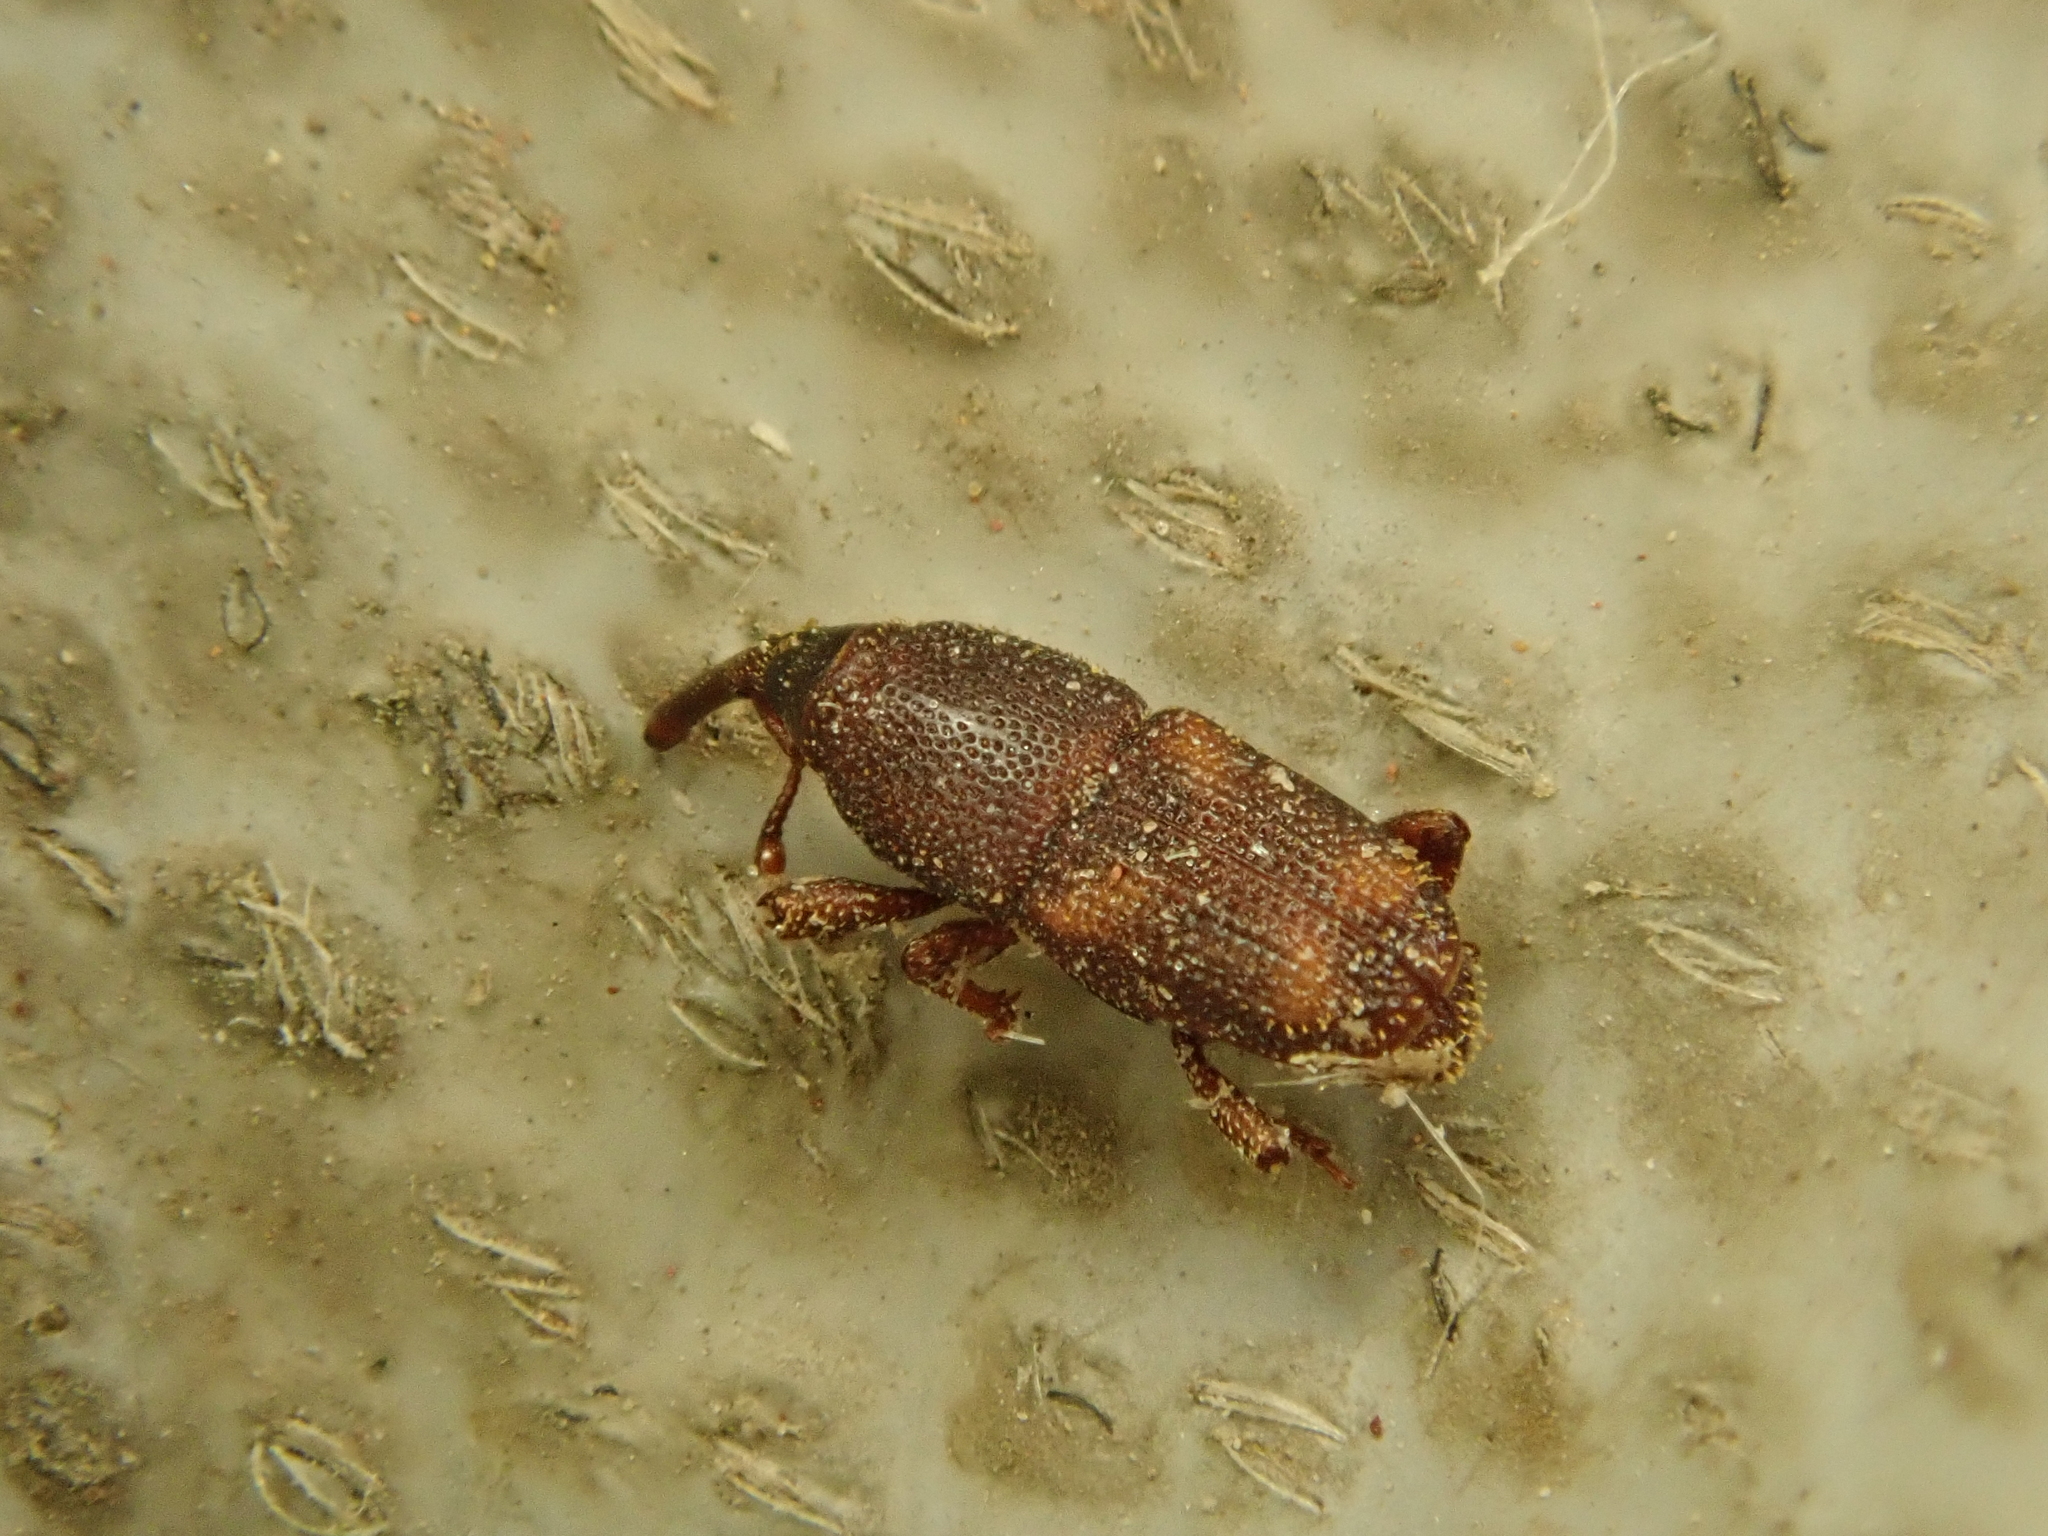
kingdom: Animalia
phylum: Arthropoda
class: Insecta
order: Coleoptera
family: Dryophthoridae
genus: Sitophilus
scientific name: Sitophilus zeamais
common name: Palm weevil
